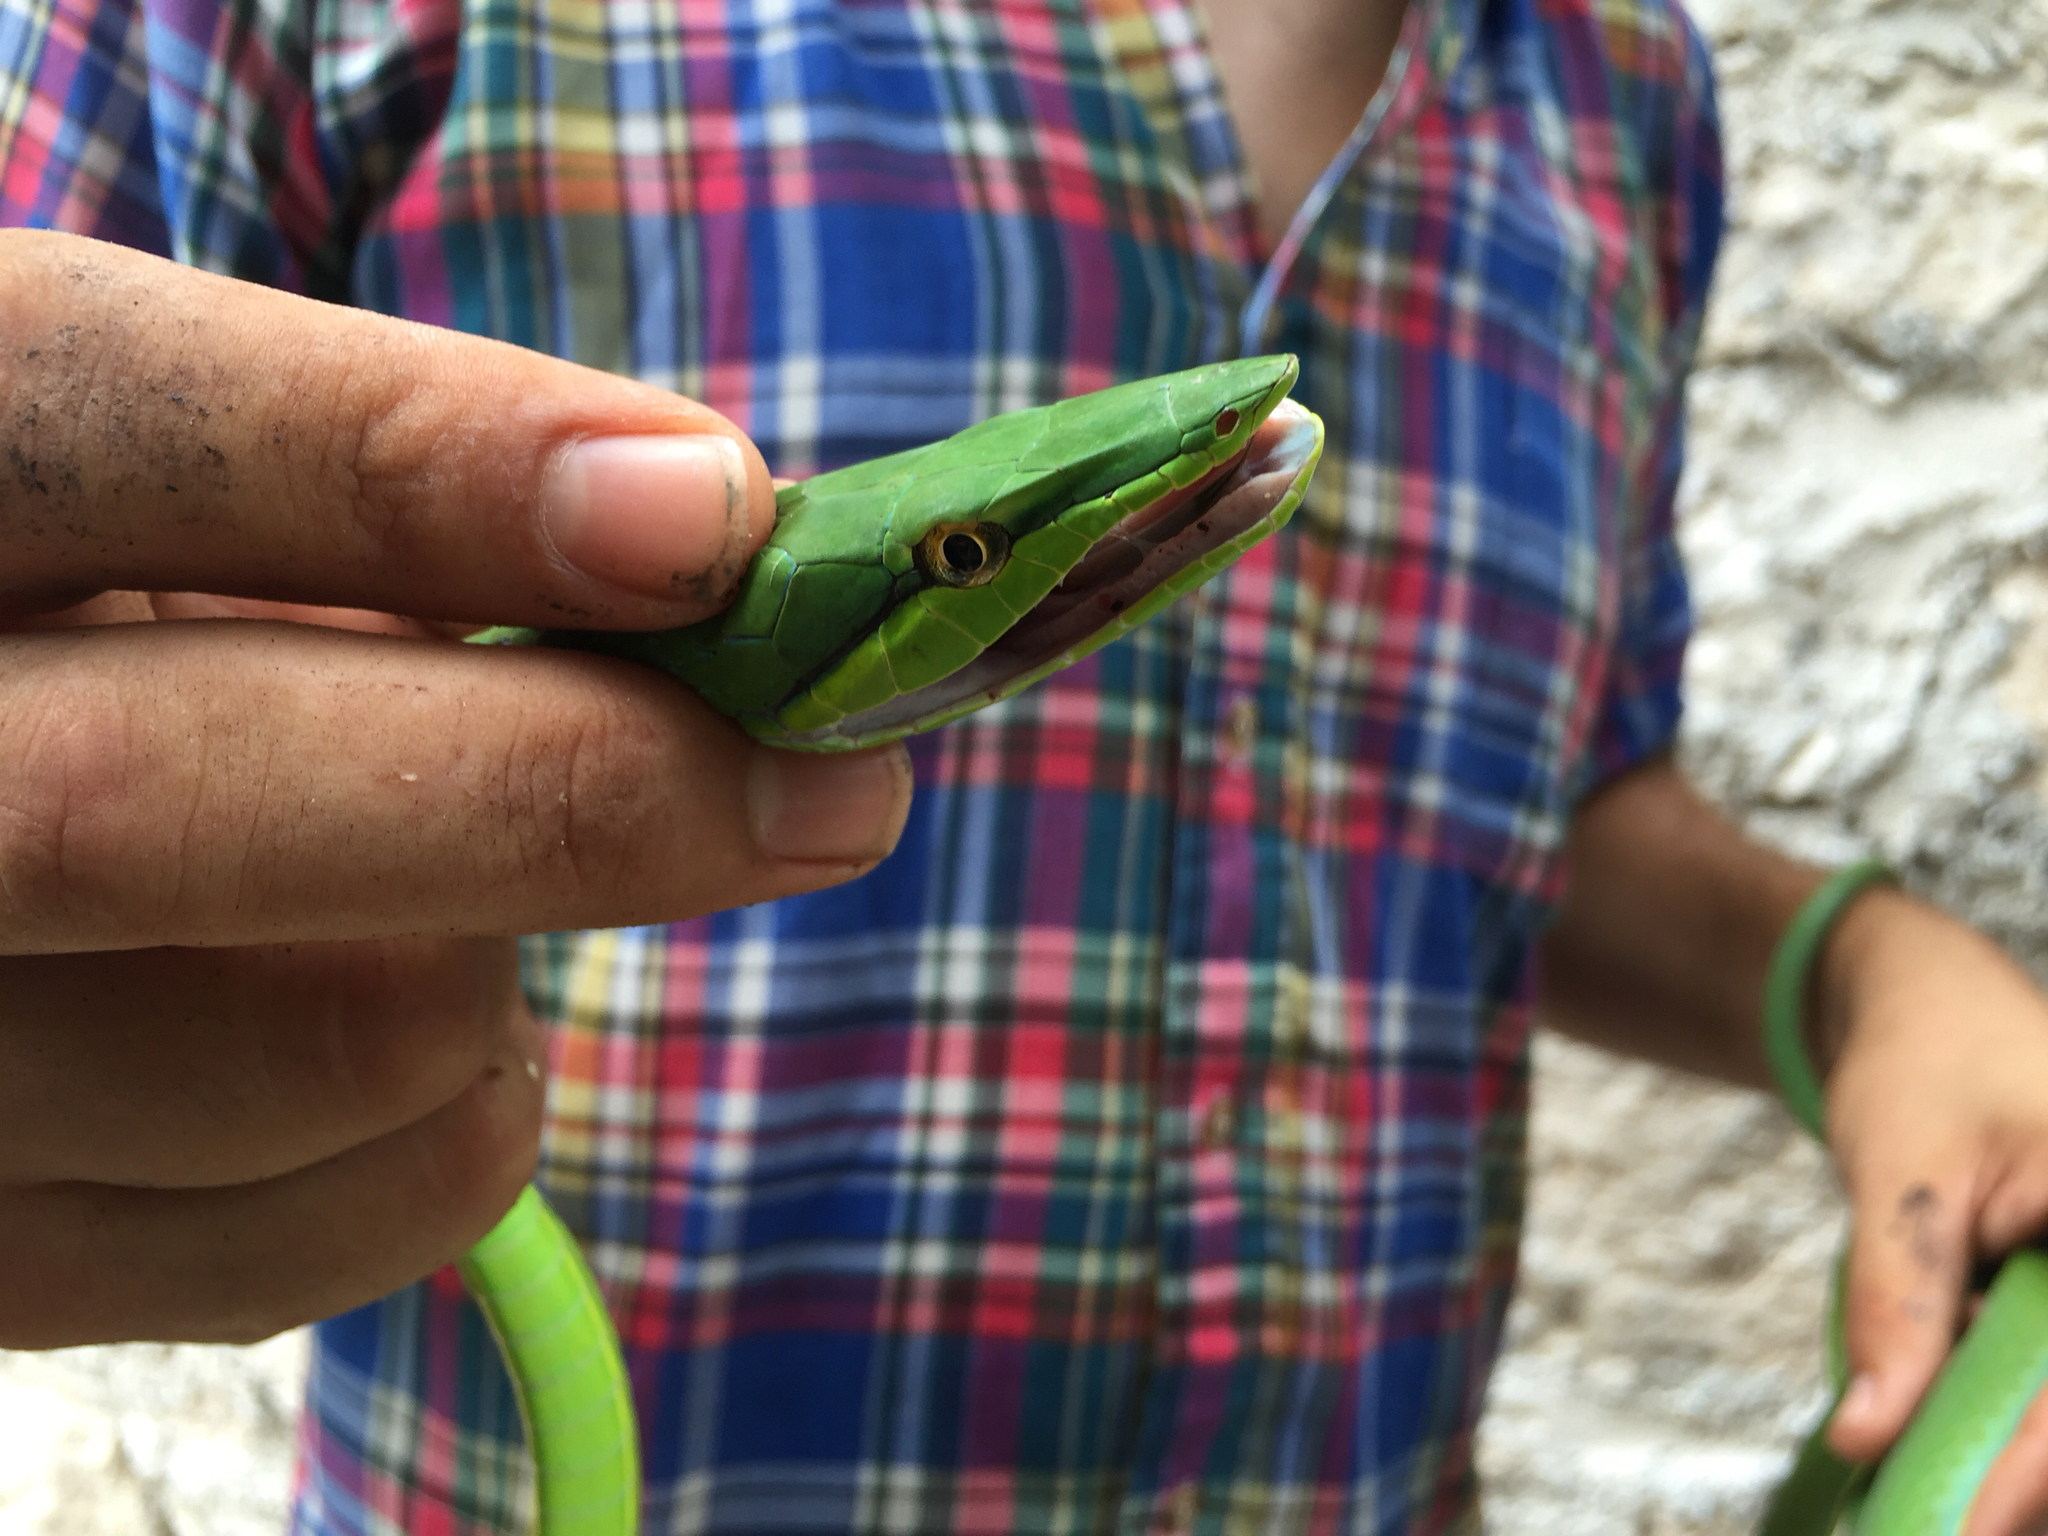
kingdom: Animalia
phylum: Chordata
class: Squamata
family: Colubridae
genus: Oxybelis
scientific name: Oxybelis fulgidus
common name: Green vine snake
